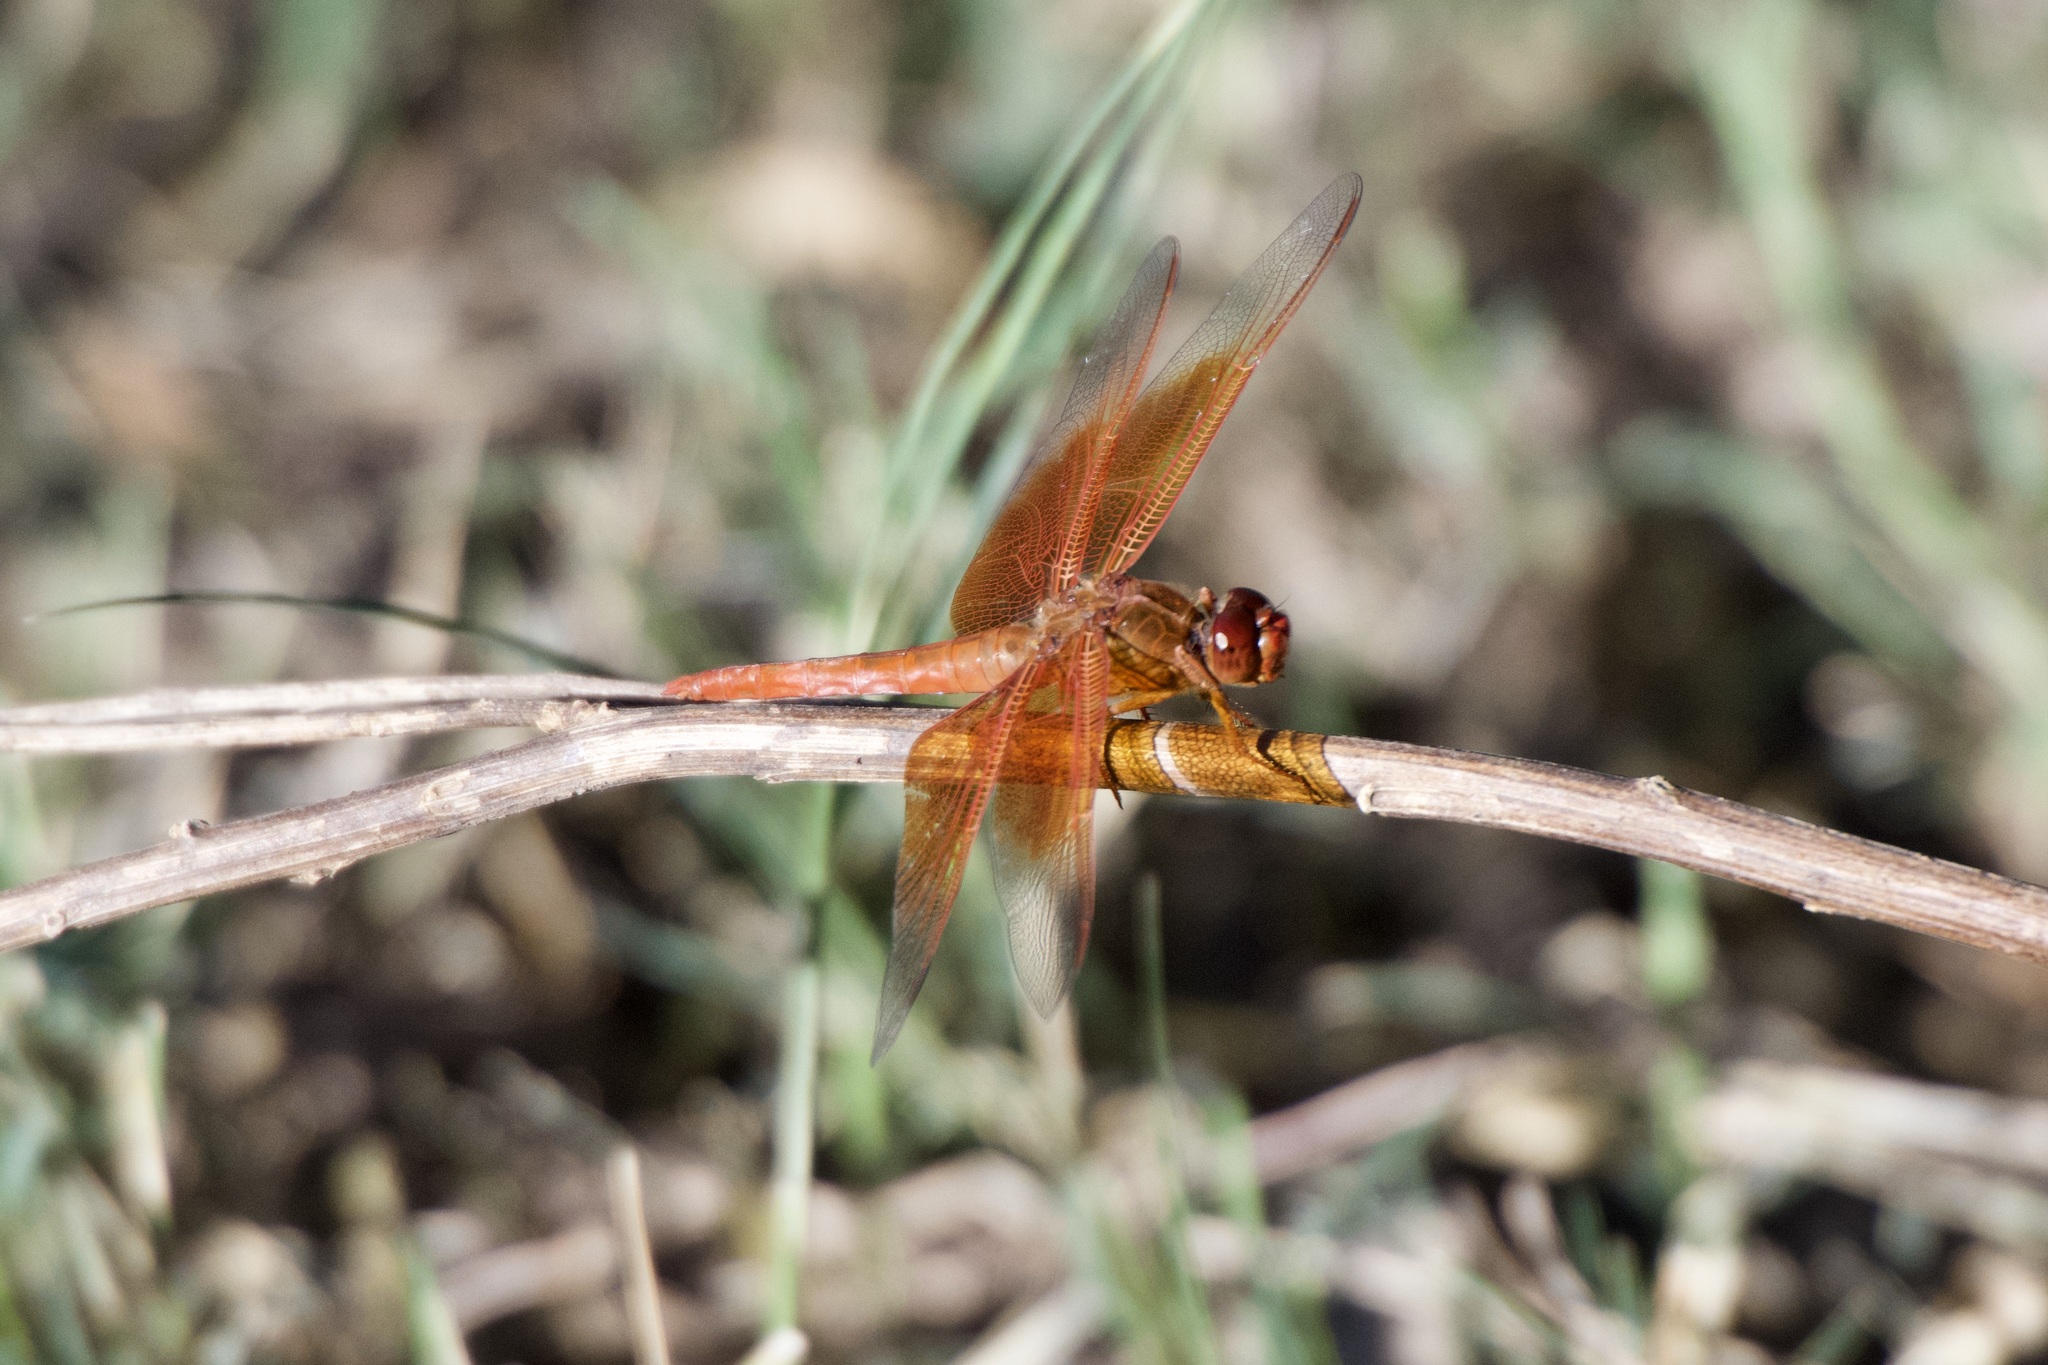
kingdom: Animalia
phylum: Arthropoda
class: Insecta
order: Odonata
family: Libellulidae
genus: Libellula
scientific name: Libellula saturata
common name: Flame skimmer
